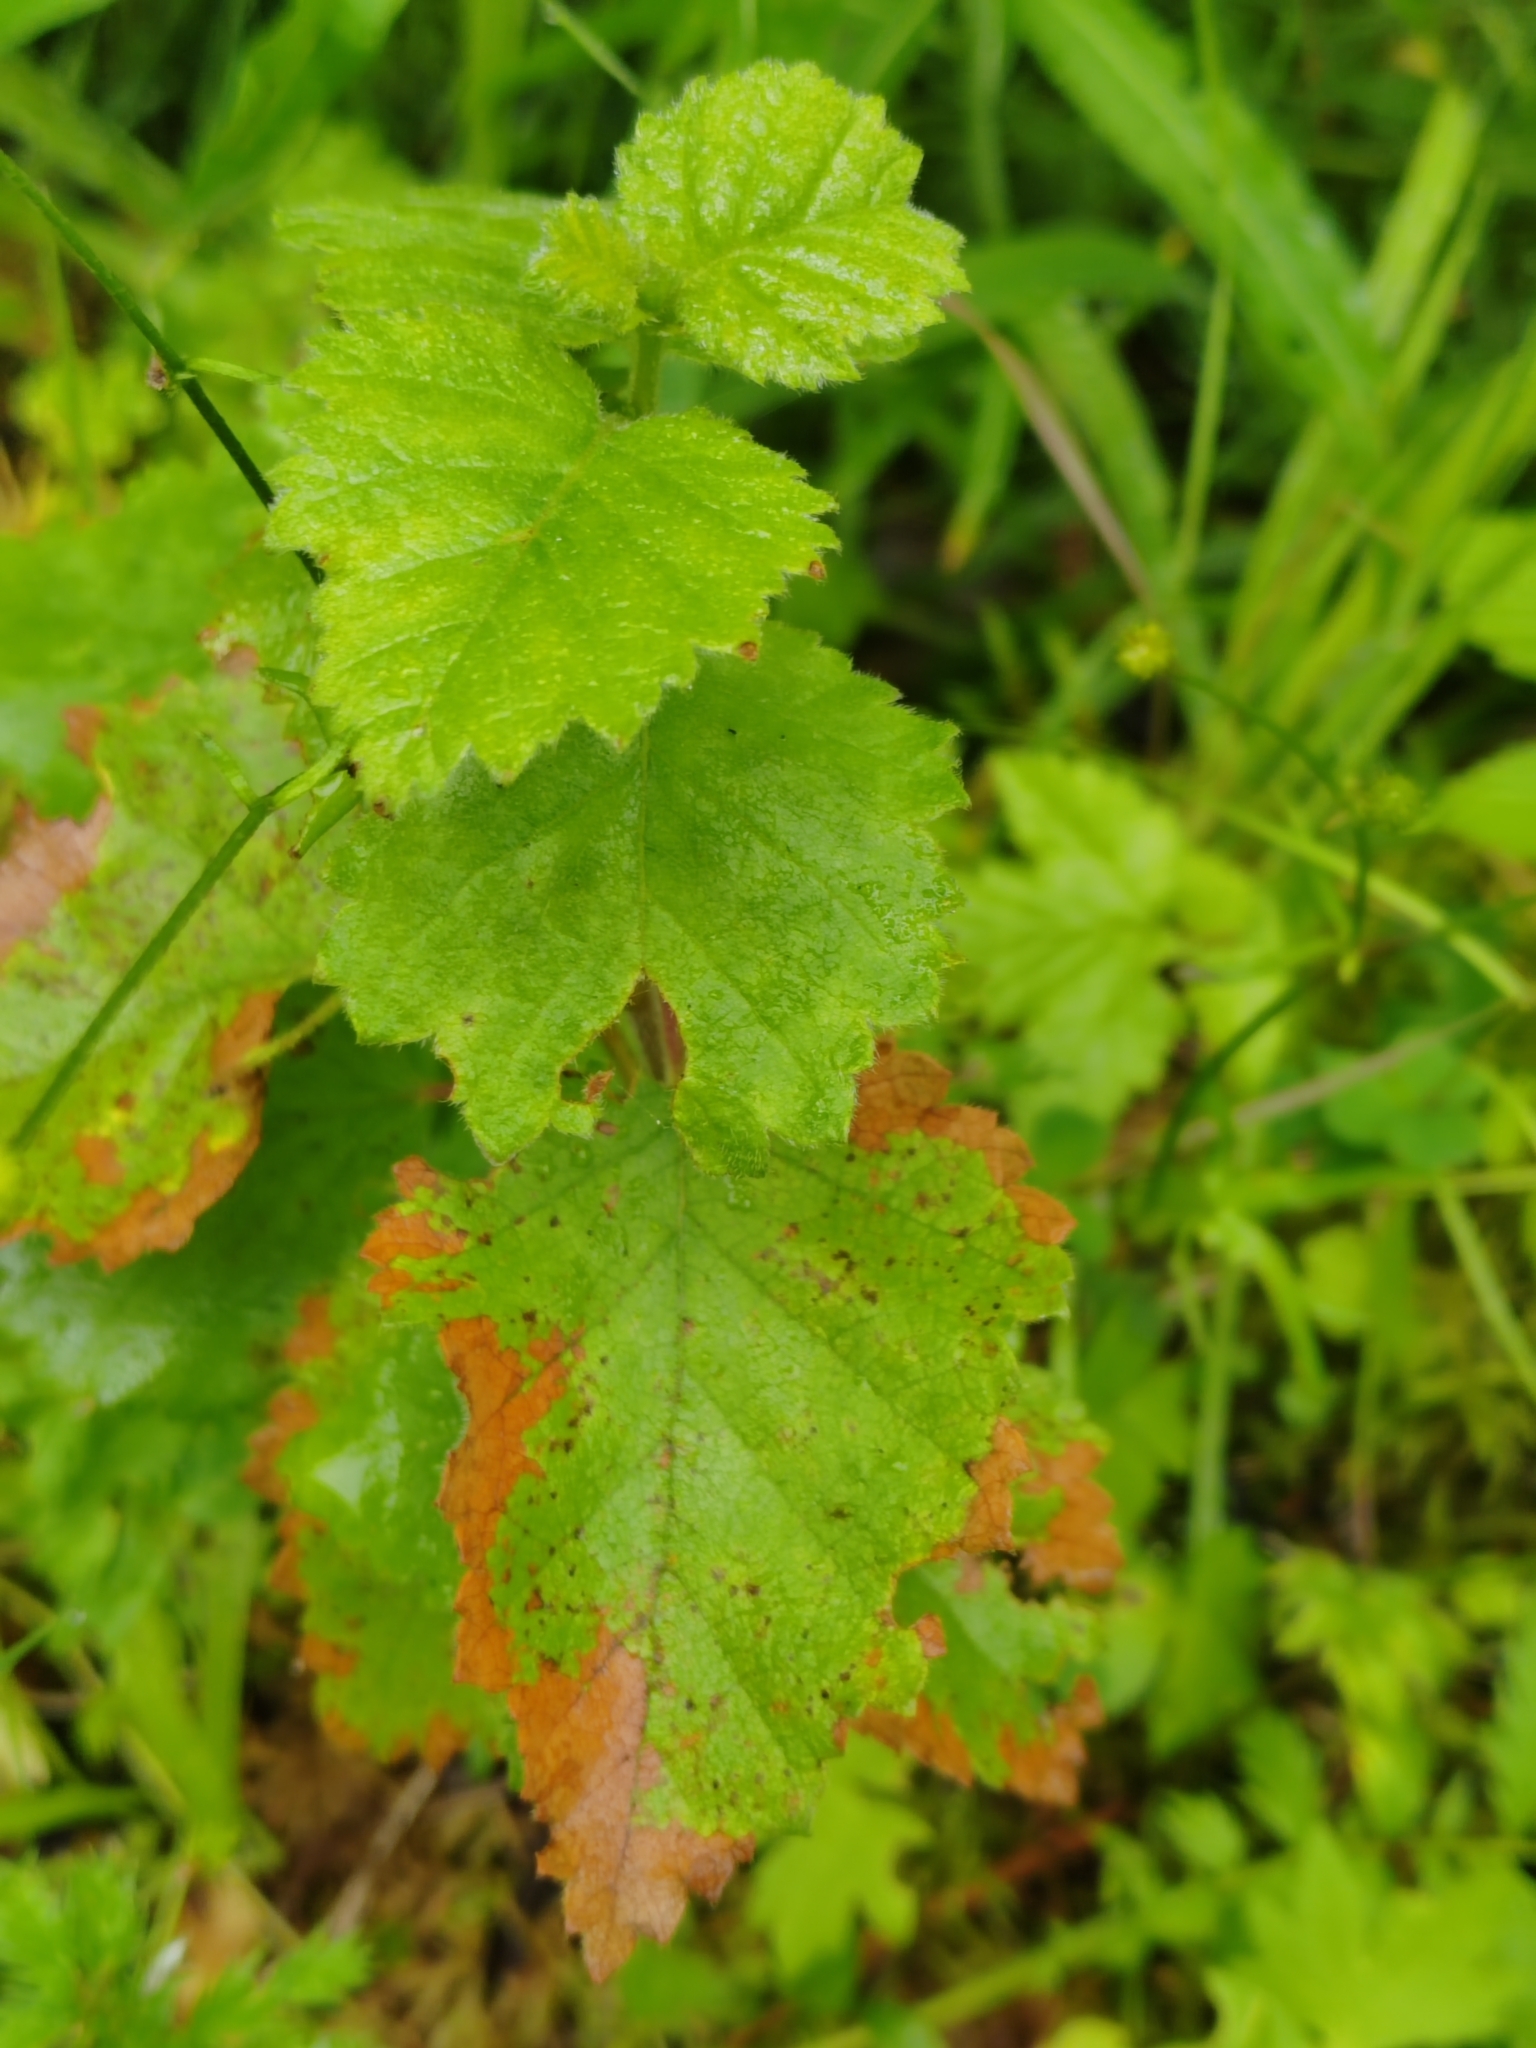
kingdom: Plantae
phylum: Tracheophyta
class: Magnoliopsida
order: Fagales
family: Betulaceae
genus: Betula
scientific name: Betula pubescens
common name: Downy birch
